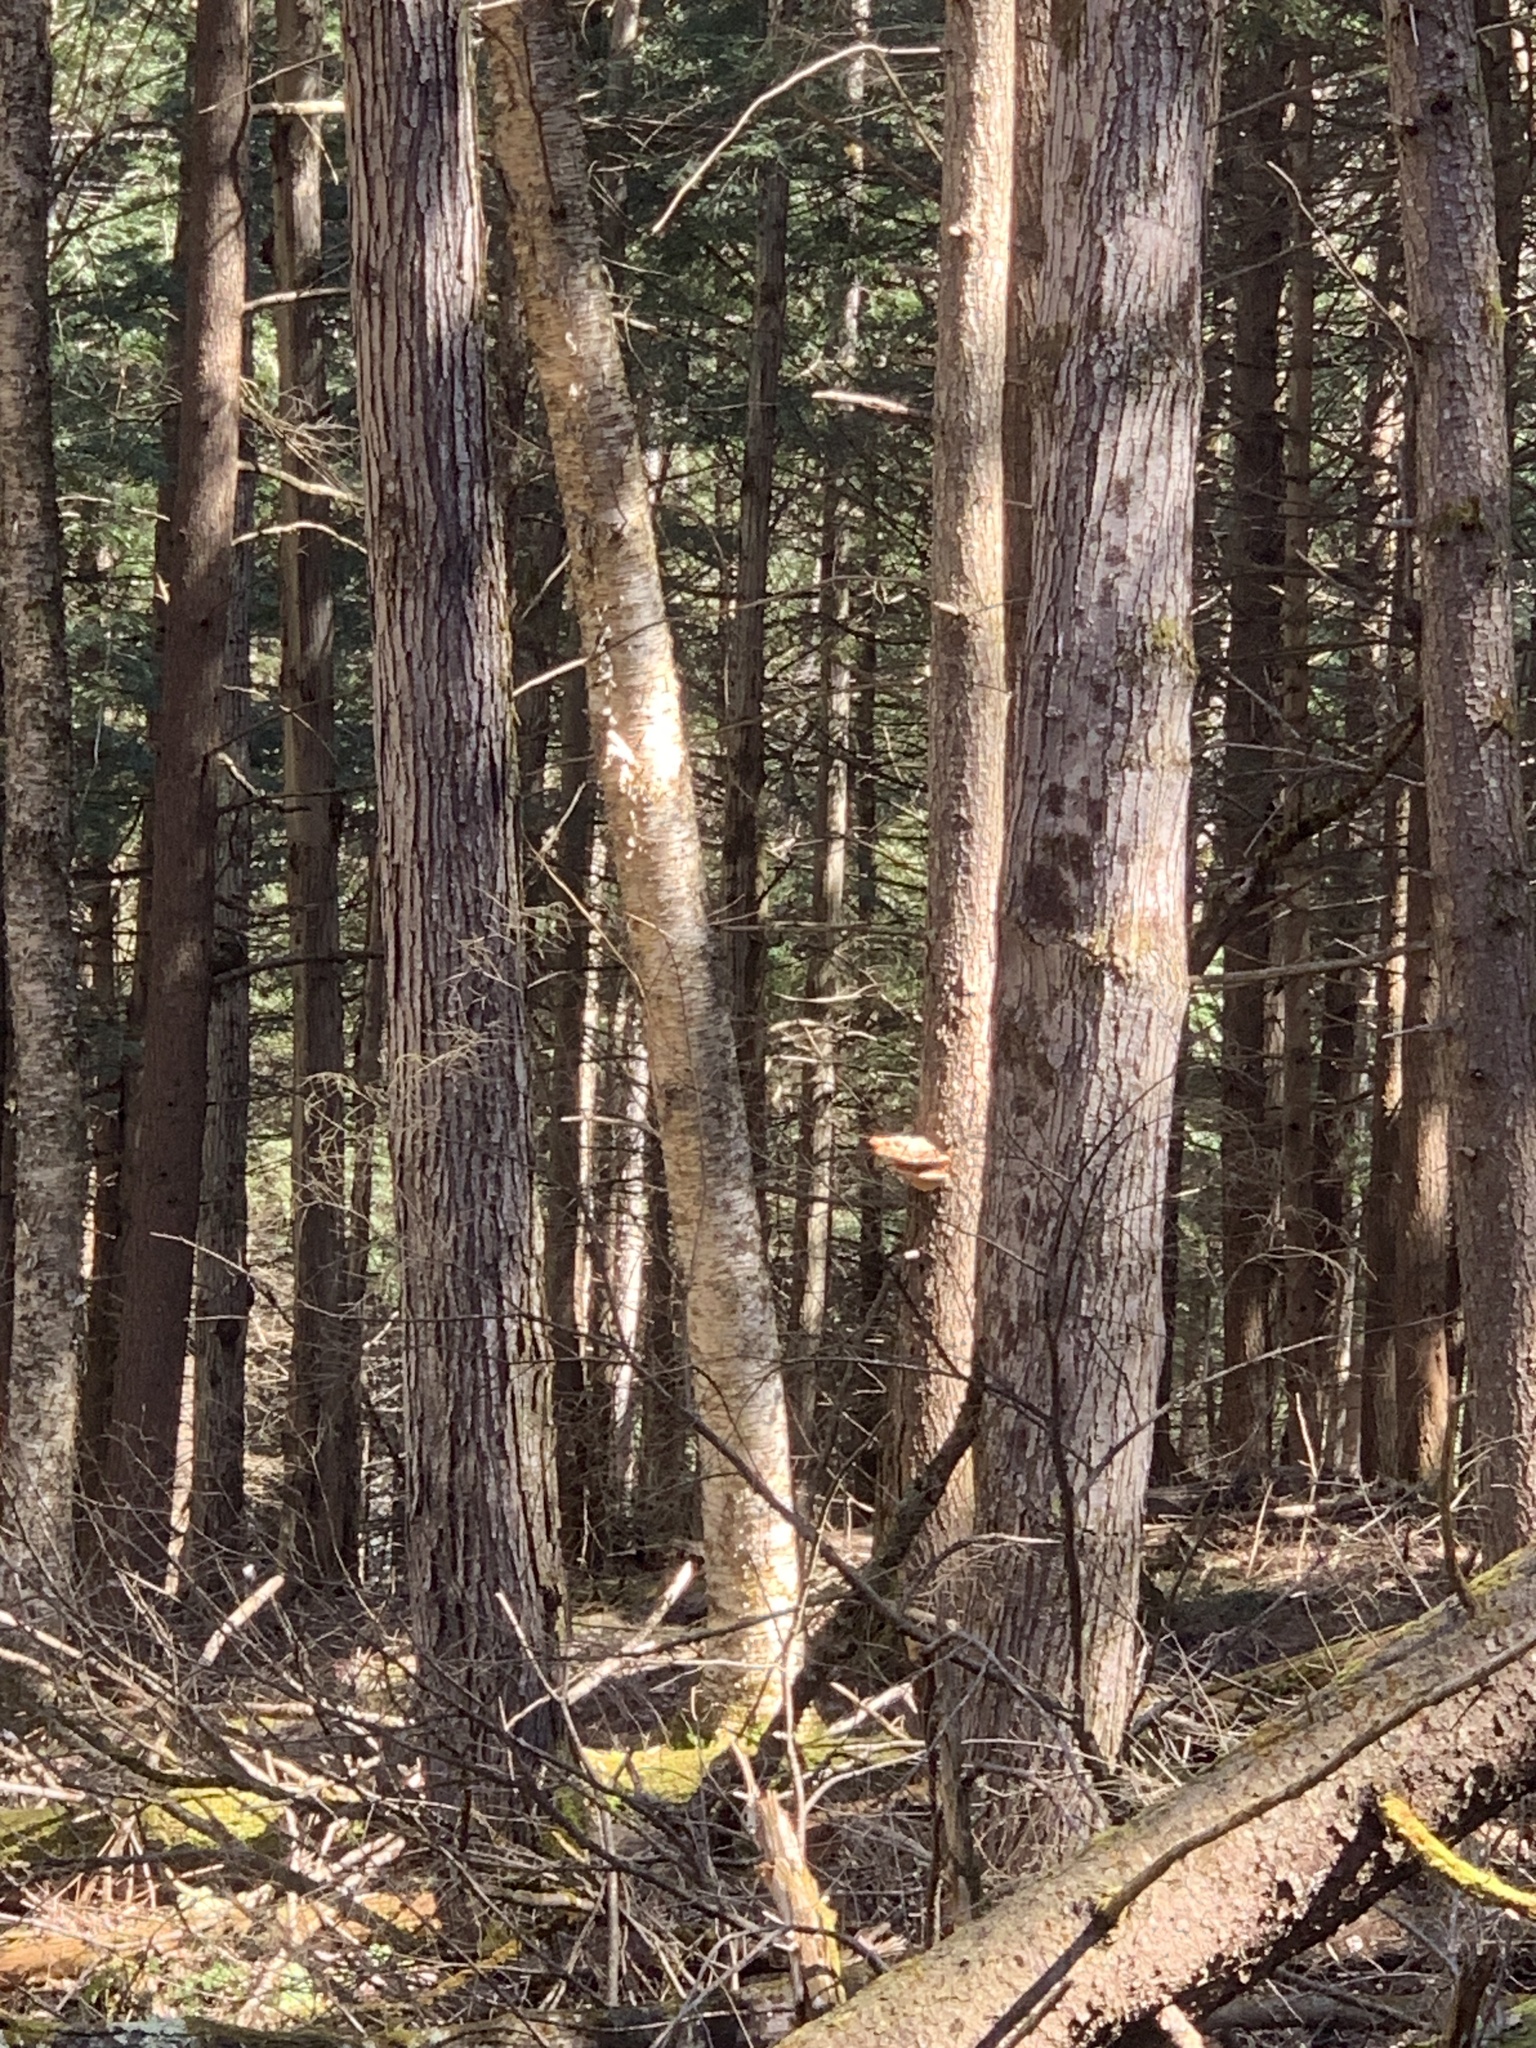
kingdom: Plantae
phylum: Tracheophyta
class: Magnoliopsida
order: Sapindales
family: Sapindaceae
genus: Acer
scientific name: Acer saccharum
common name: Sugar maple
